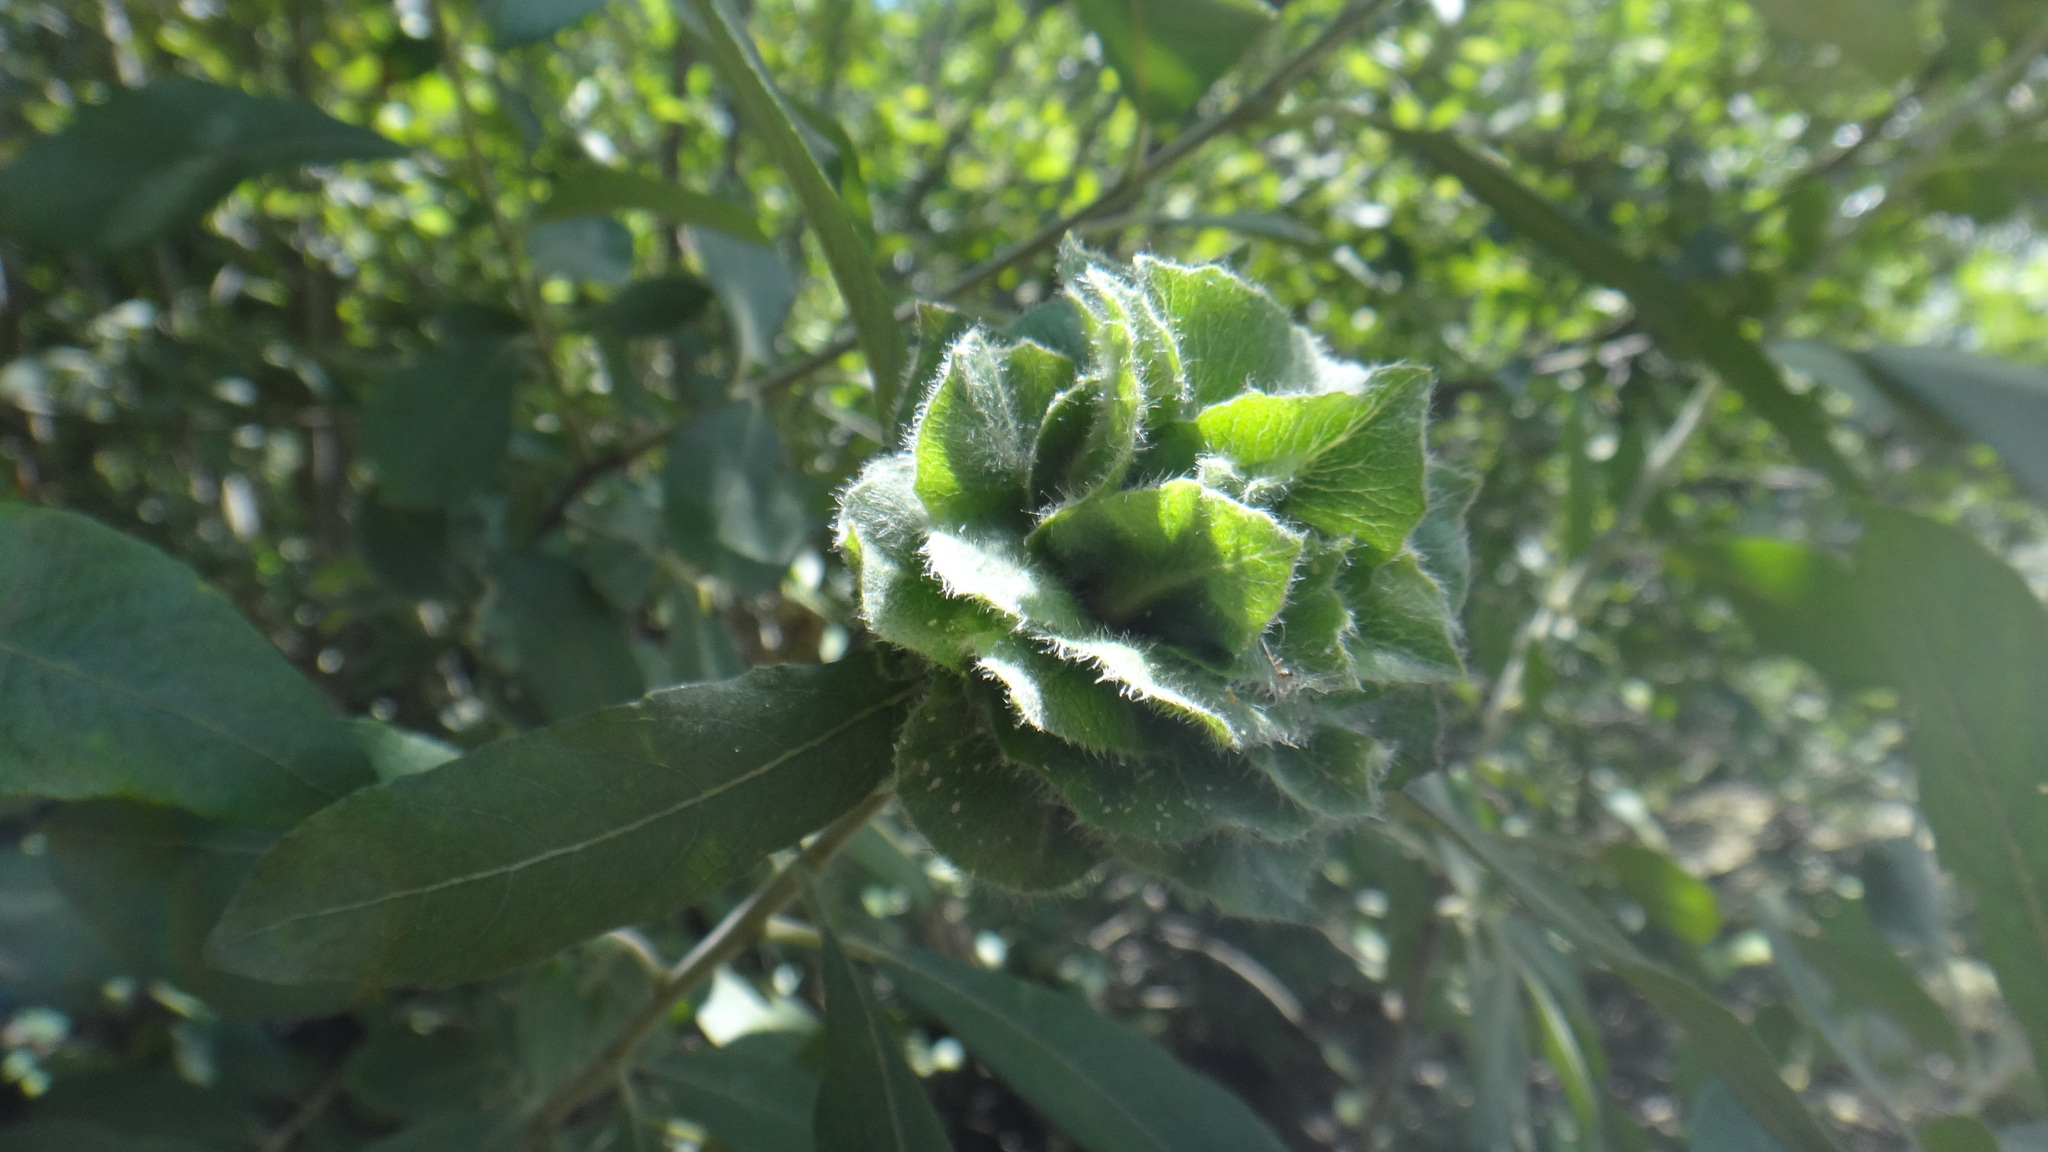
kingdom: Animalia
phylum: Arthropoda
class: Insecta
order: Diptera
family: Cecidomyiidae
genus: Rabdophaga
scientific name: Rabdophaga rosaria
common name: Willow rose gall midge
